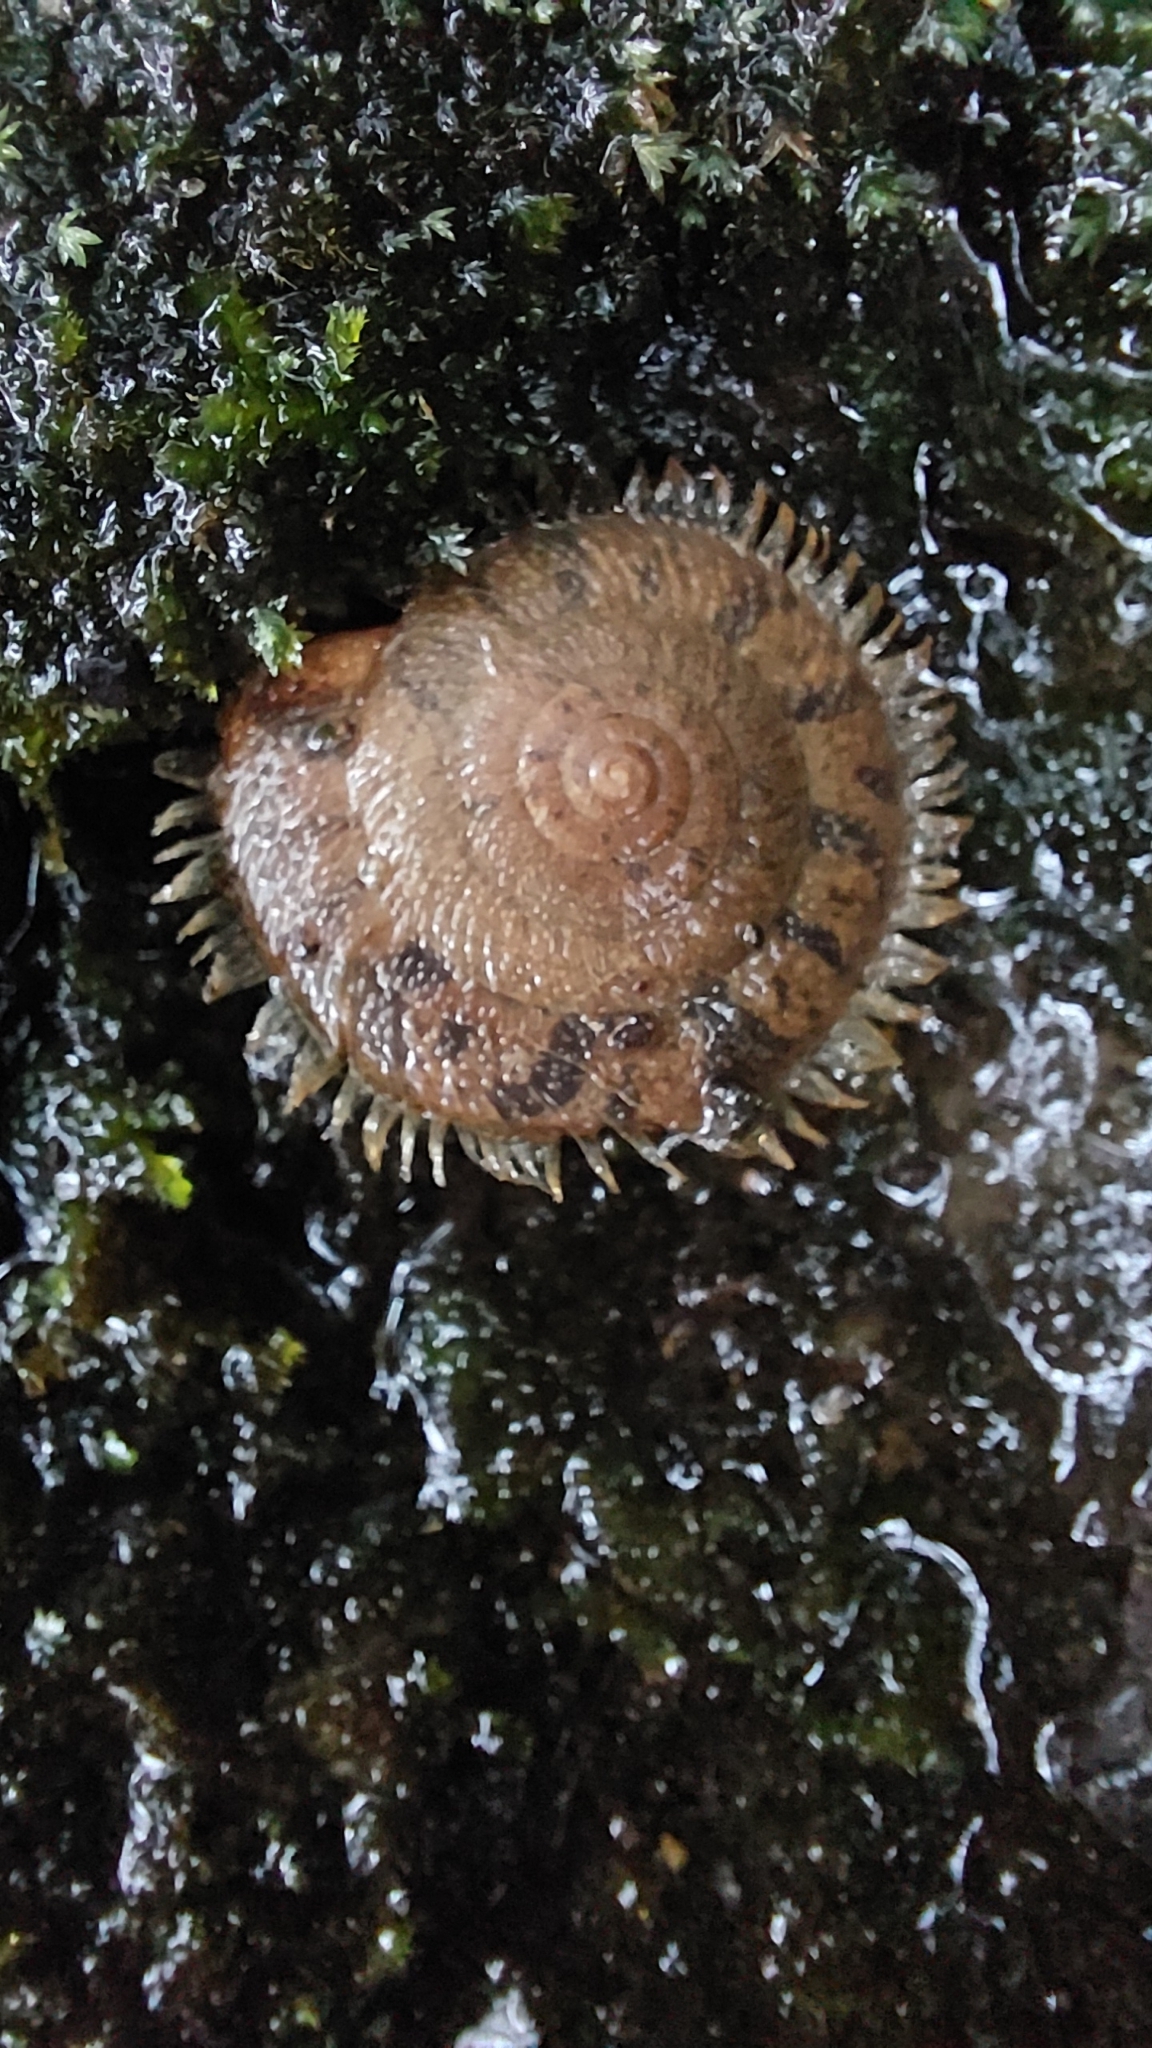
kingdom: Animalia
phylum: Mollusca
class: Gastropoda
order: Stylommatophora
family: Camaenidae
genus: Plectotropis
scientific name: Plectotropis mackensii
